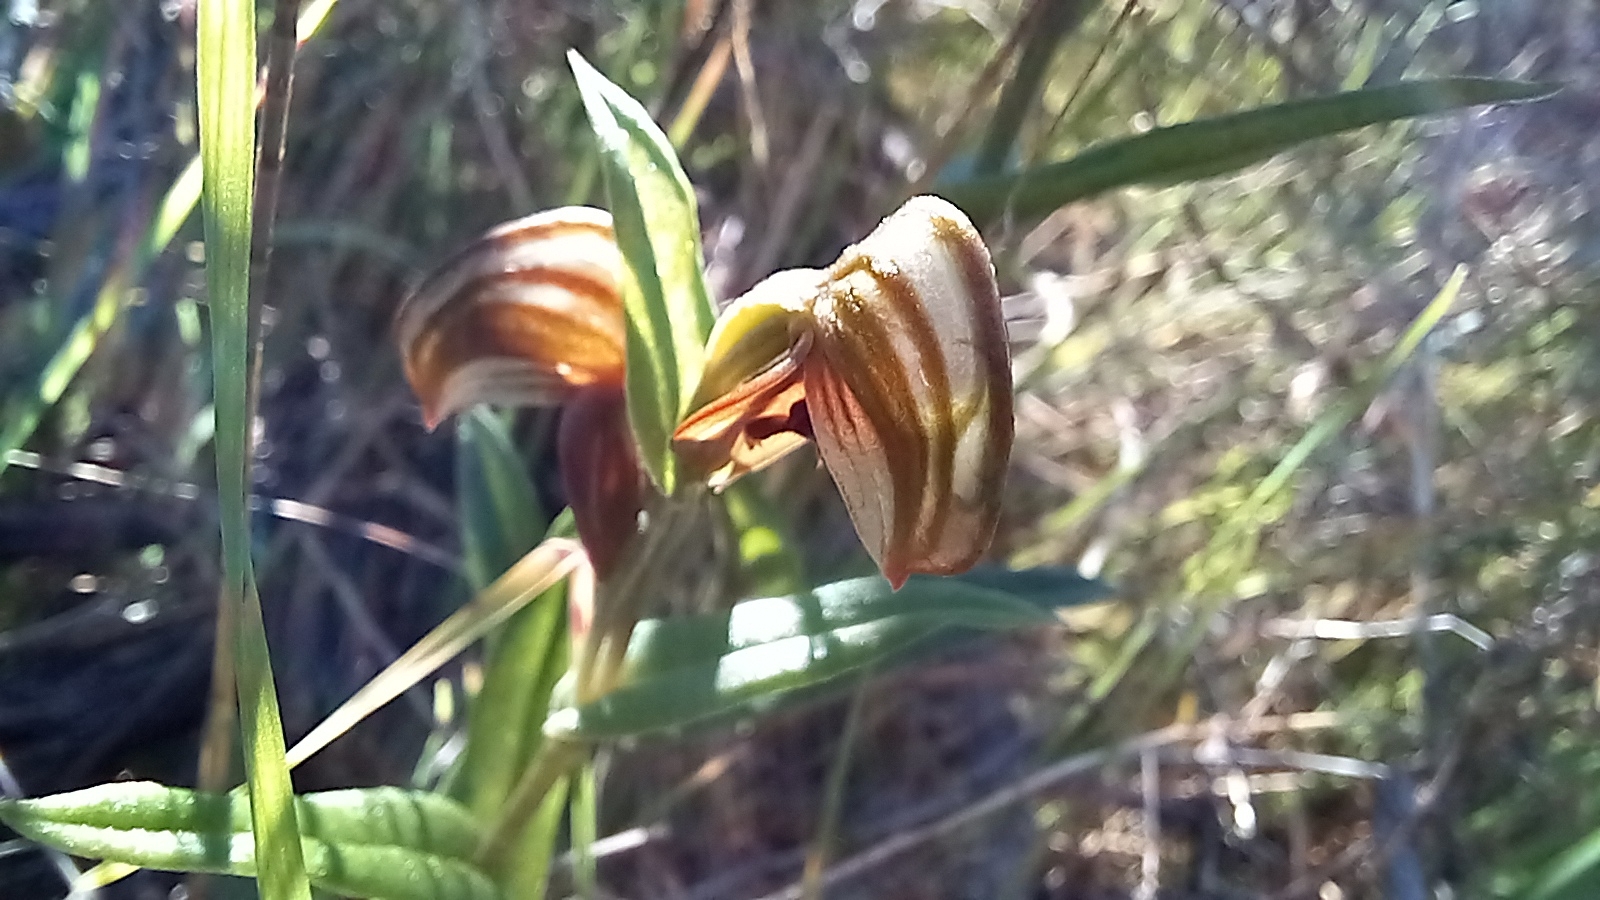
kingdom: Plantae
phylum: Tracheophyta
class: Liliopsida
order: Asparagales
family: Orchidaceae
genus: Pterostylis
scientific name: Pterostylis sanguinea
